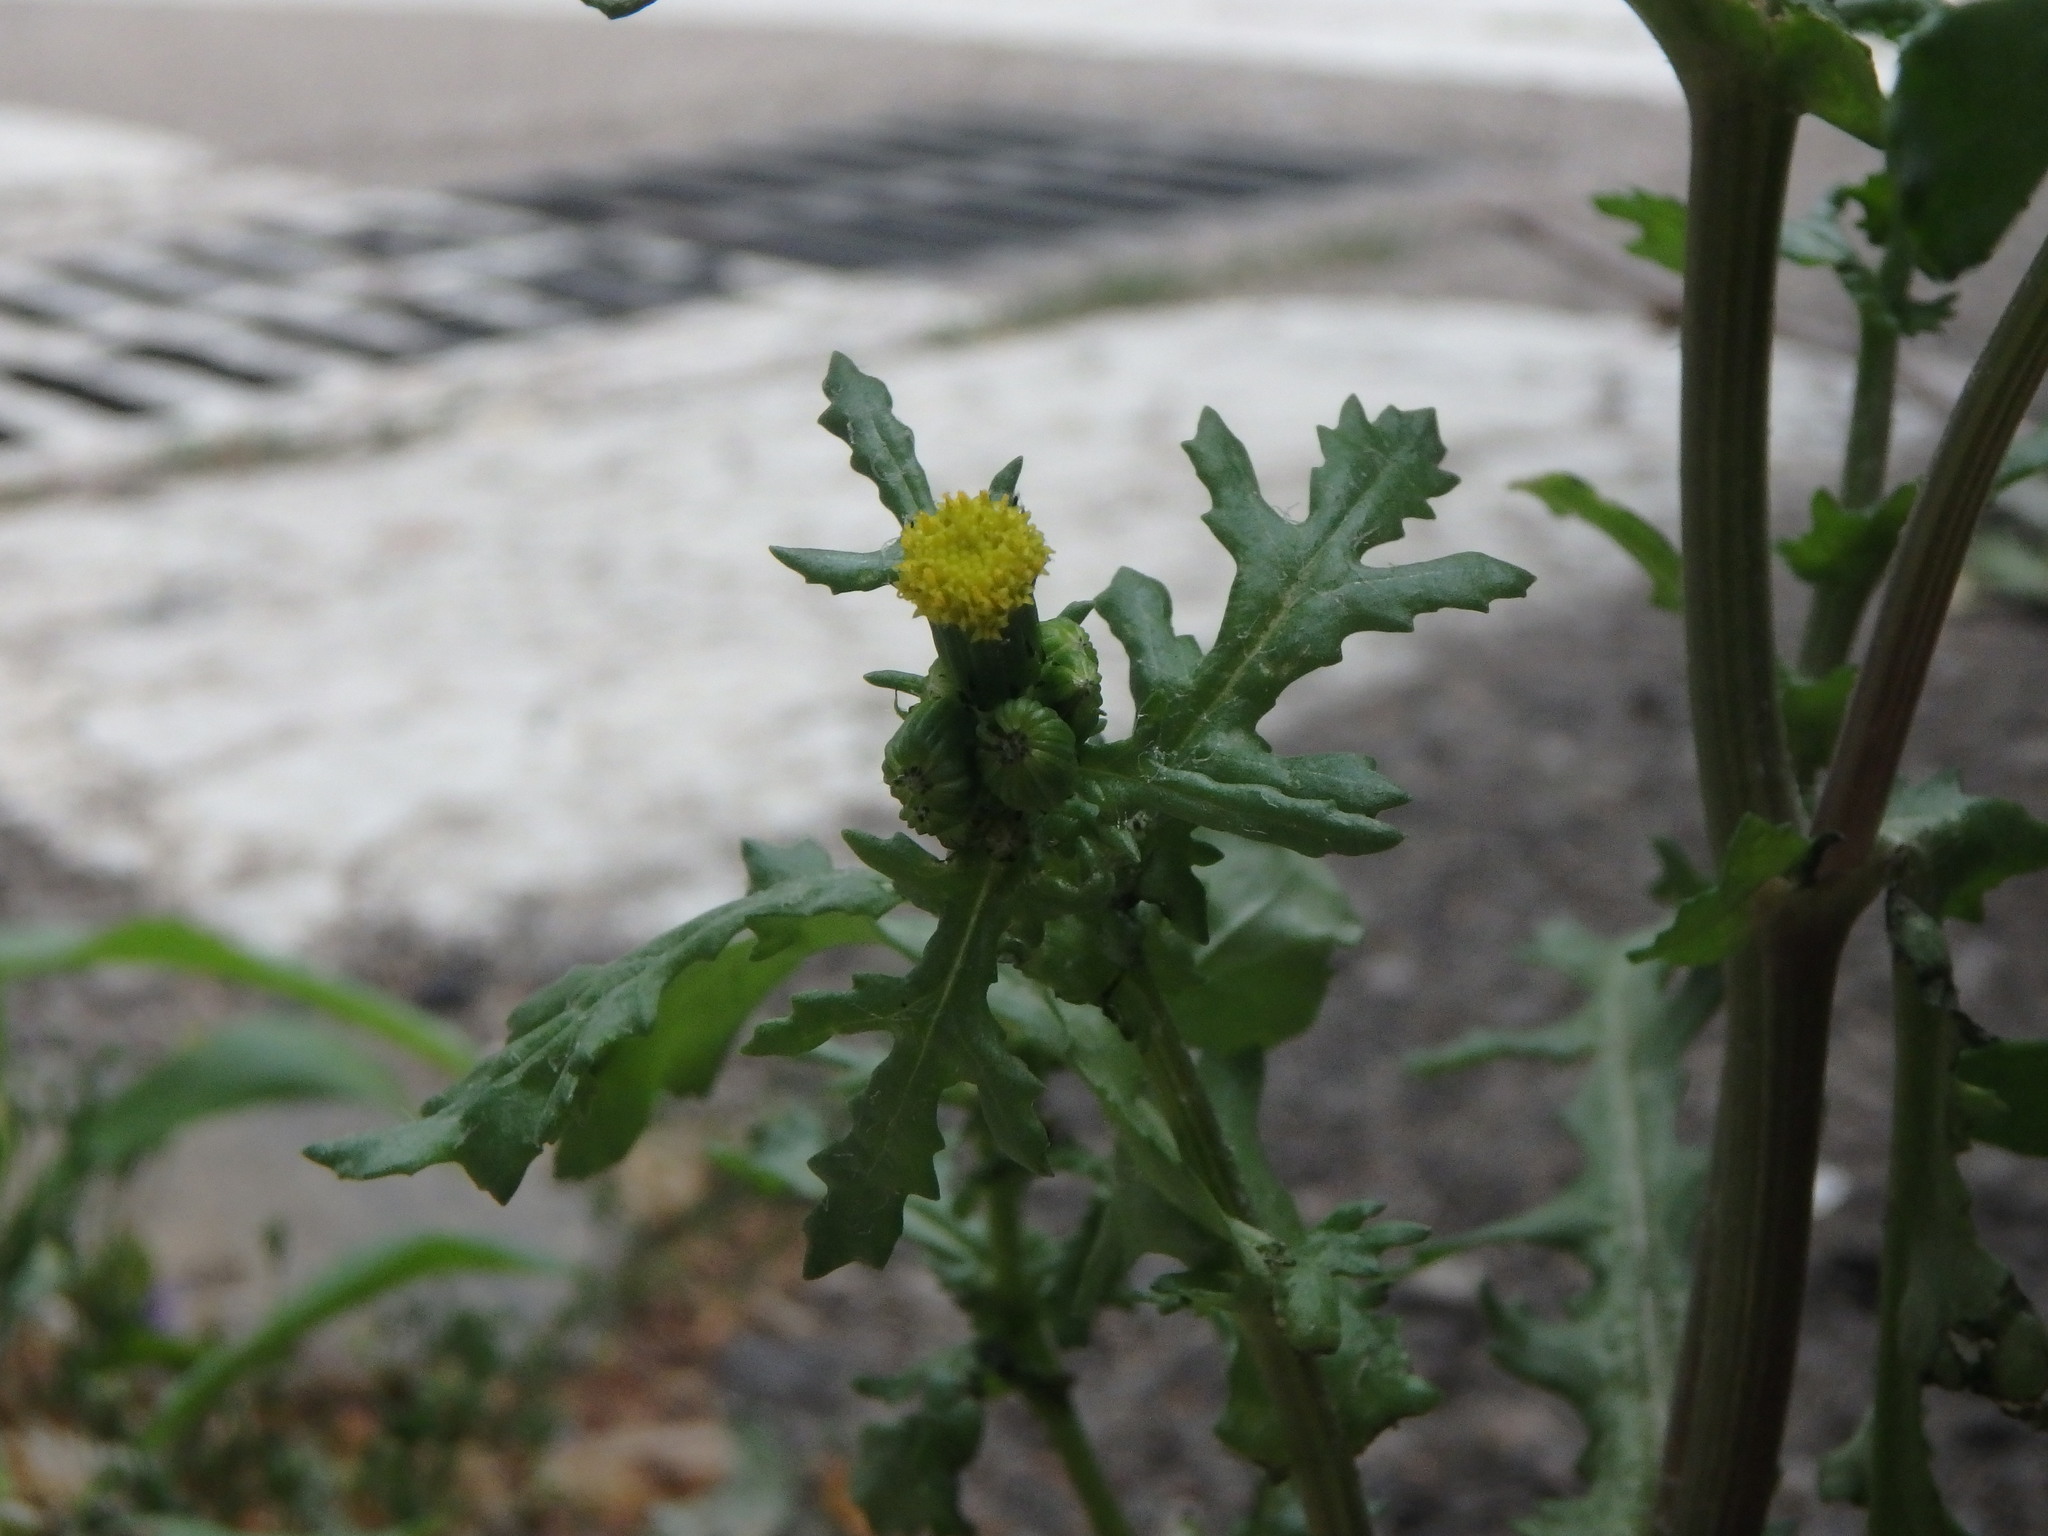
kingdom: Plantae
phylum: Tracheophyta
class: Magnoliopsida
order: Asterales
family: Asteraceae
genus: Senecio
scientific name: Senecio vulgaris
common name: Old-man-in-the-spring
